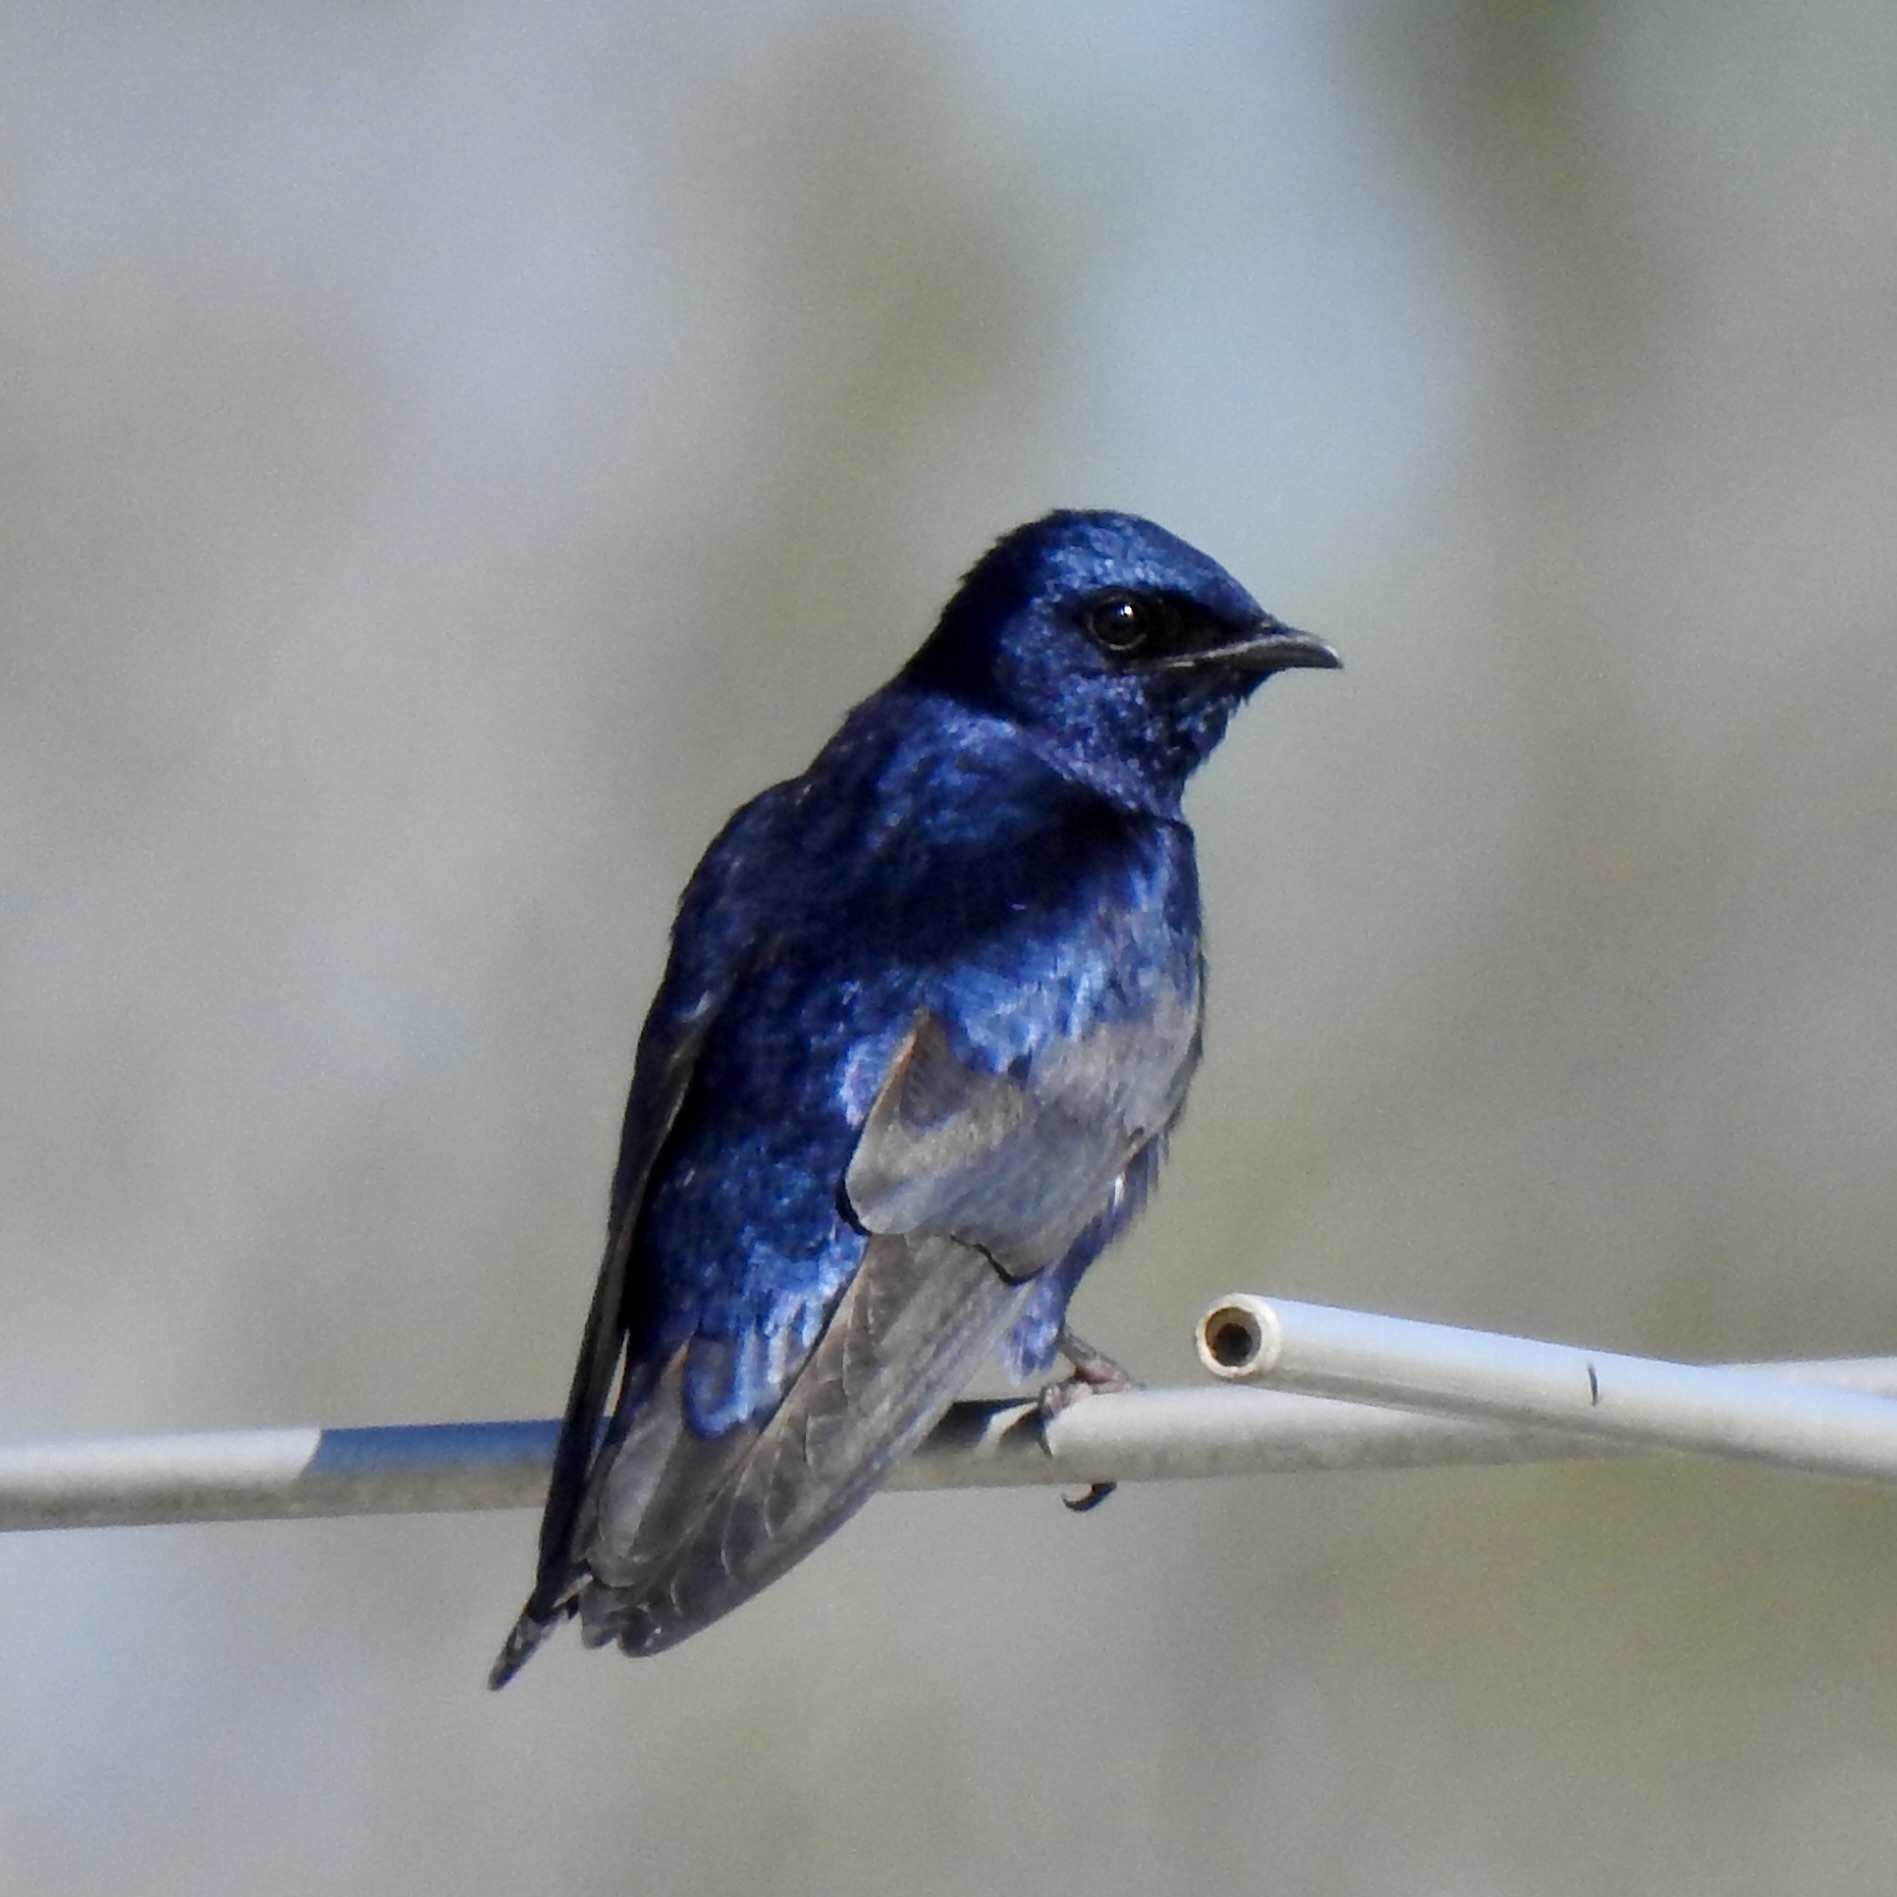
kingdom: Animalia
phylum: Chordata
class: Aves
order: Passeriformes
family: Hirundinidae
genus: Progne
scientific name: Progne subis
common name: Purple martin
